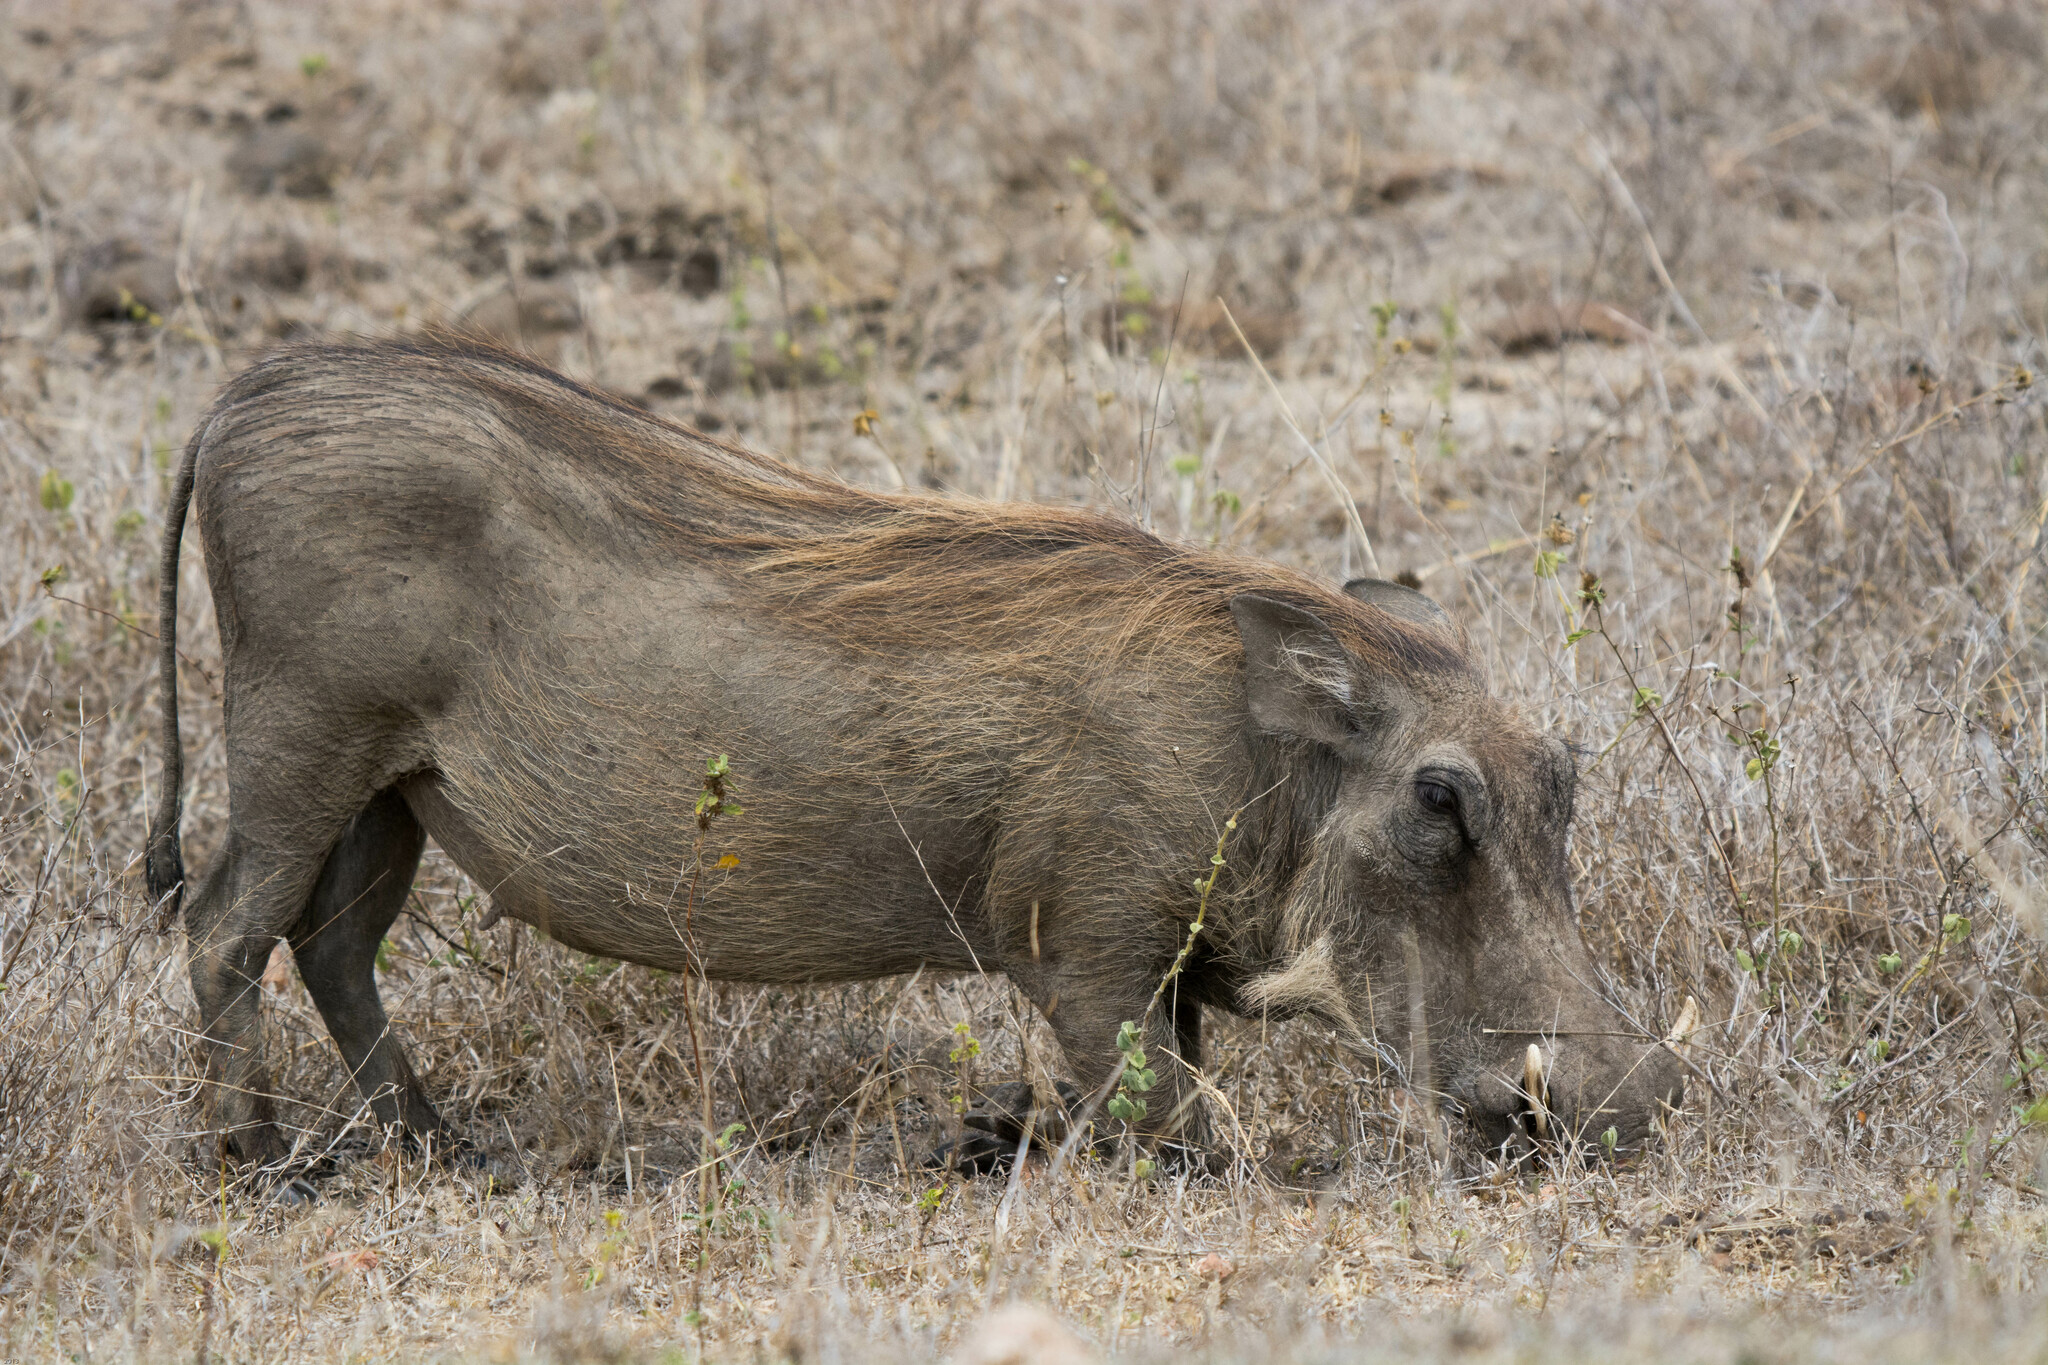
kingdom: Animalia
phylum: Chordata
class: Mammalia
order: Artiodactyla
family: Suidae
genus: Phacochoerus
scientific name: Phacochoerus africanus
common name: Common warthog
